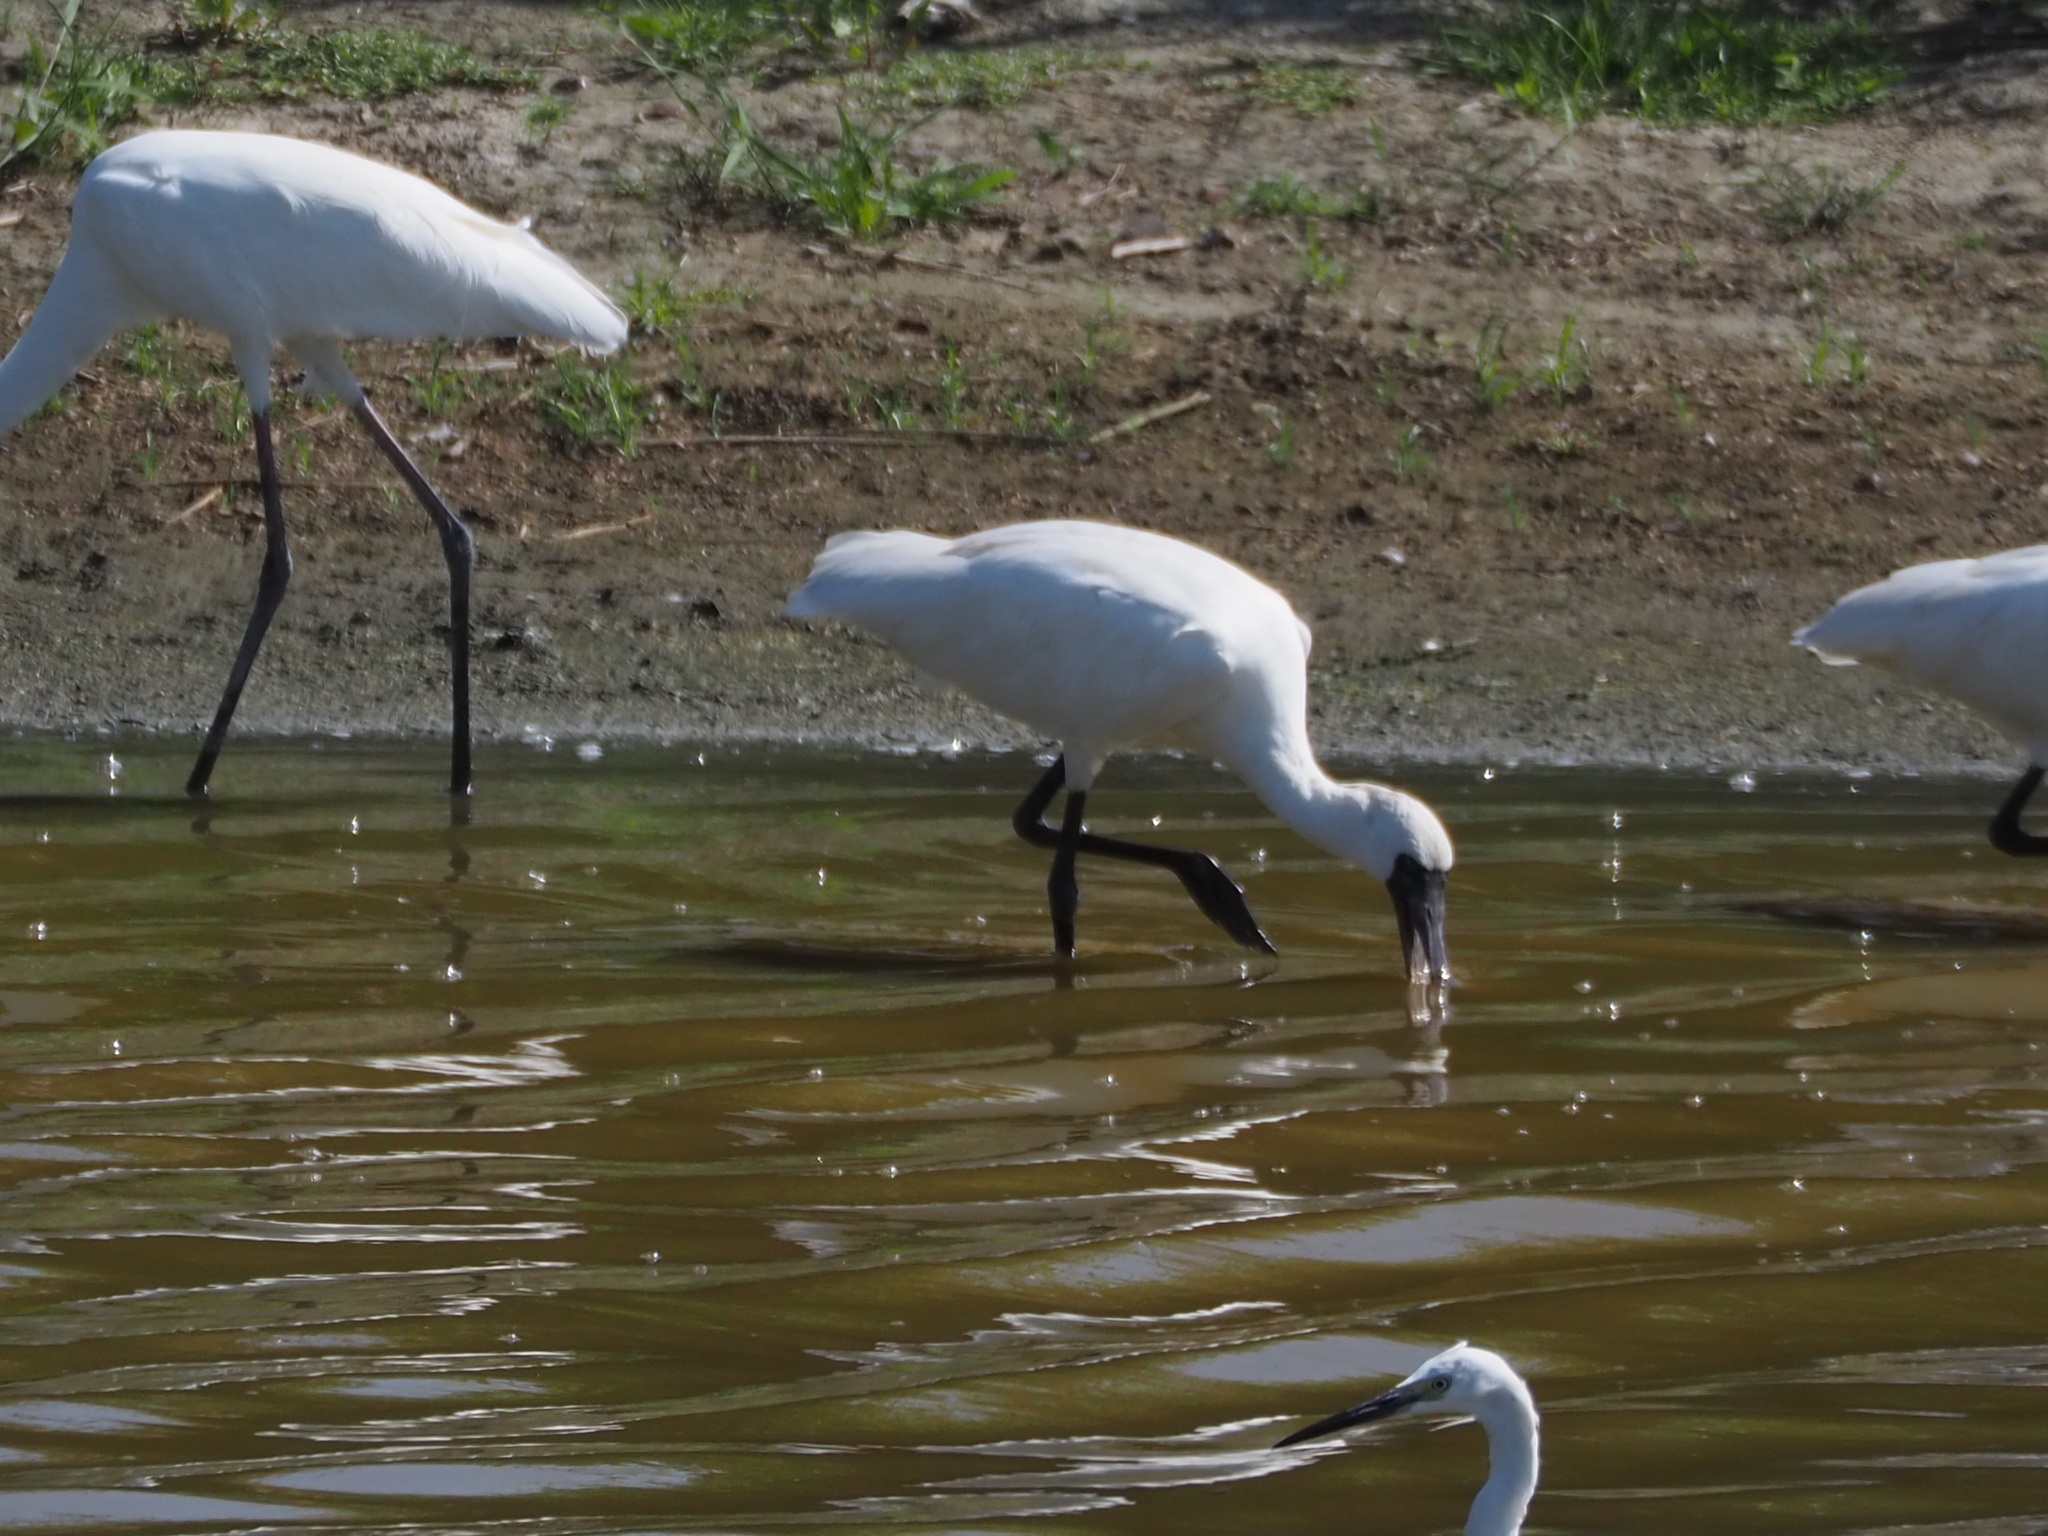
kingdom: Animalia
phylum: Chordata
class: Aves
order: Pelecaniformes
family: Threskiornithidae
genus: Platalea
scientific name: Platalea minor
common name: Black-faced spoonbill
